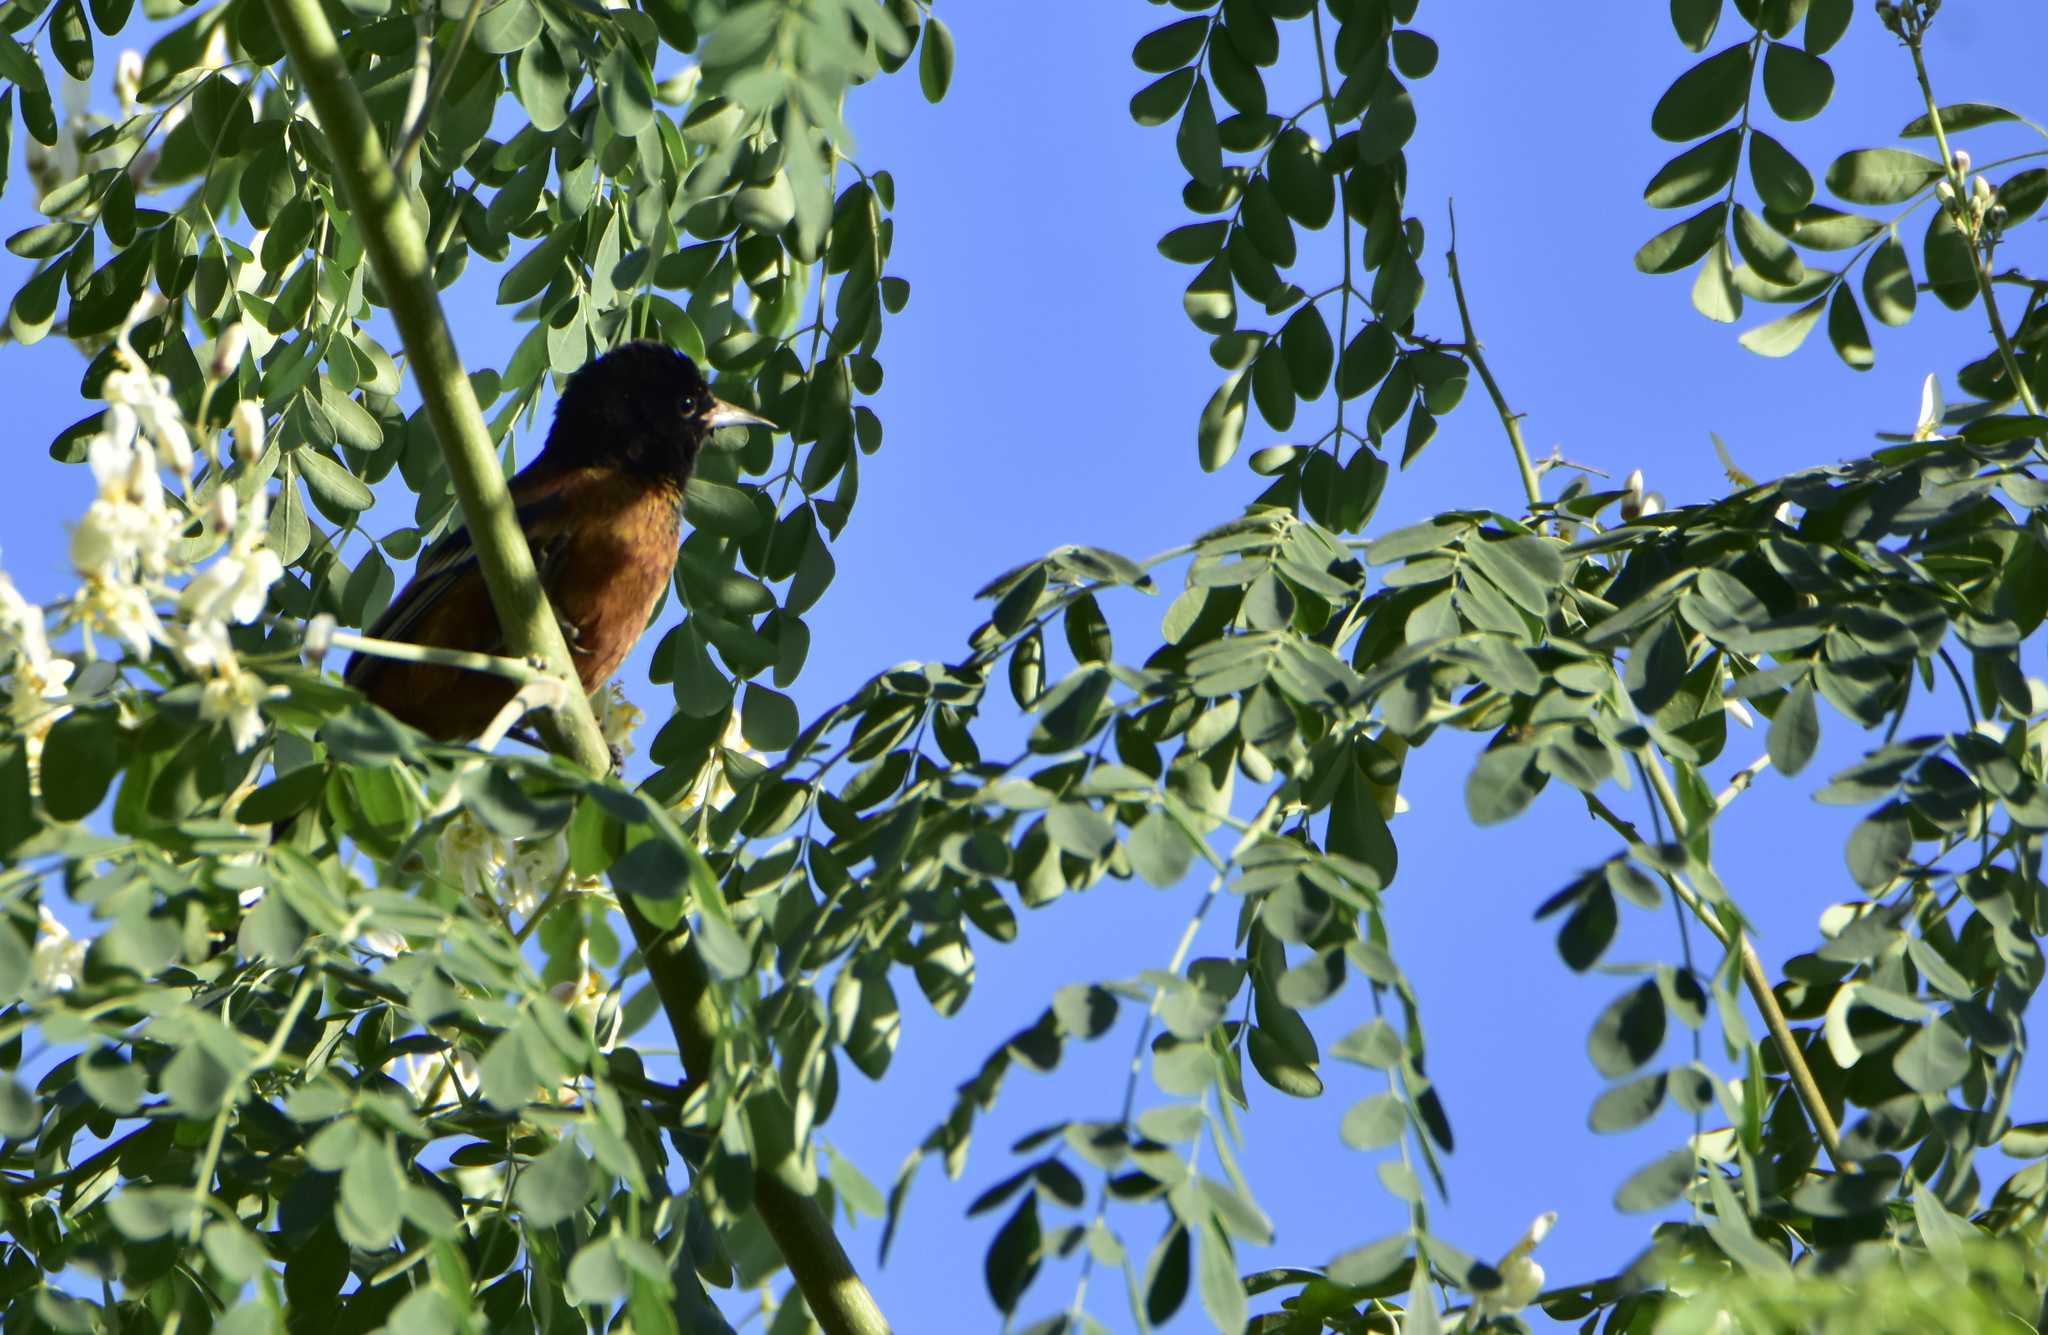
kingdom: Animalia
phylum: Chordata
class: Aves
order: Passeriformes
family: Icteridae
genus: Icterus
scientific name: Icterus spurius
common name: Orchard oriole
